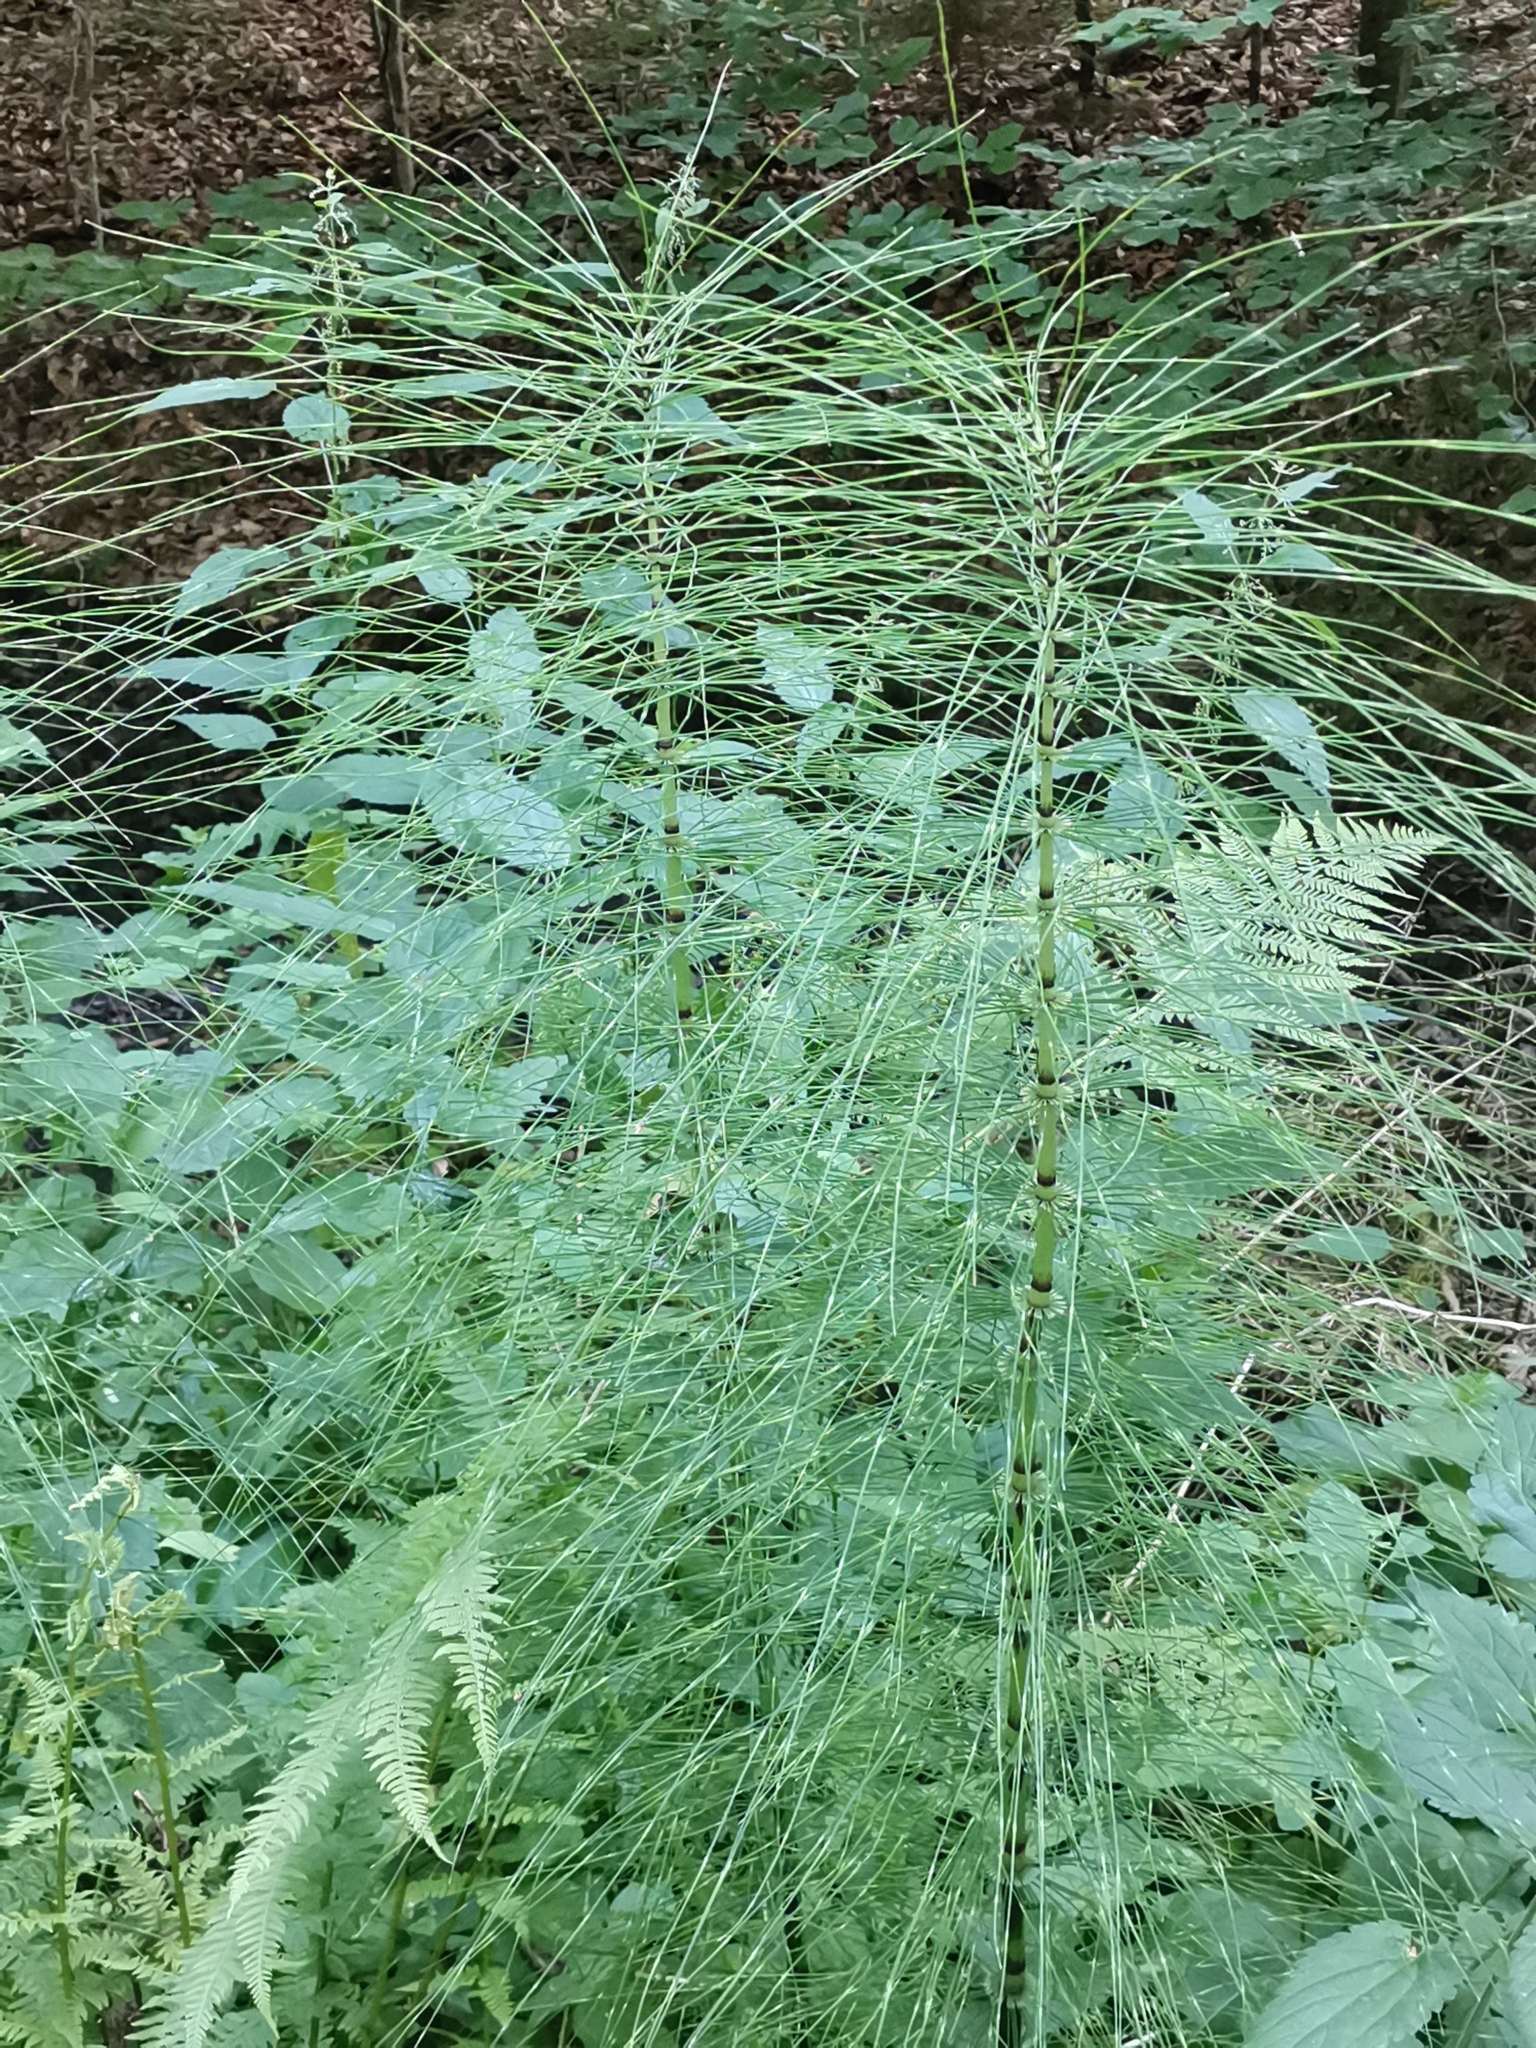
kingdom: Plantae
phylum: Tracheophyta
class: Polypodiopsida
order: Equisetales
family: Equisetaceae
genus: Equisetum
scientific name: Equisetum telmateia
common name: Great horsetail
